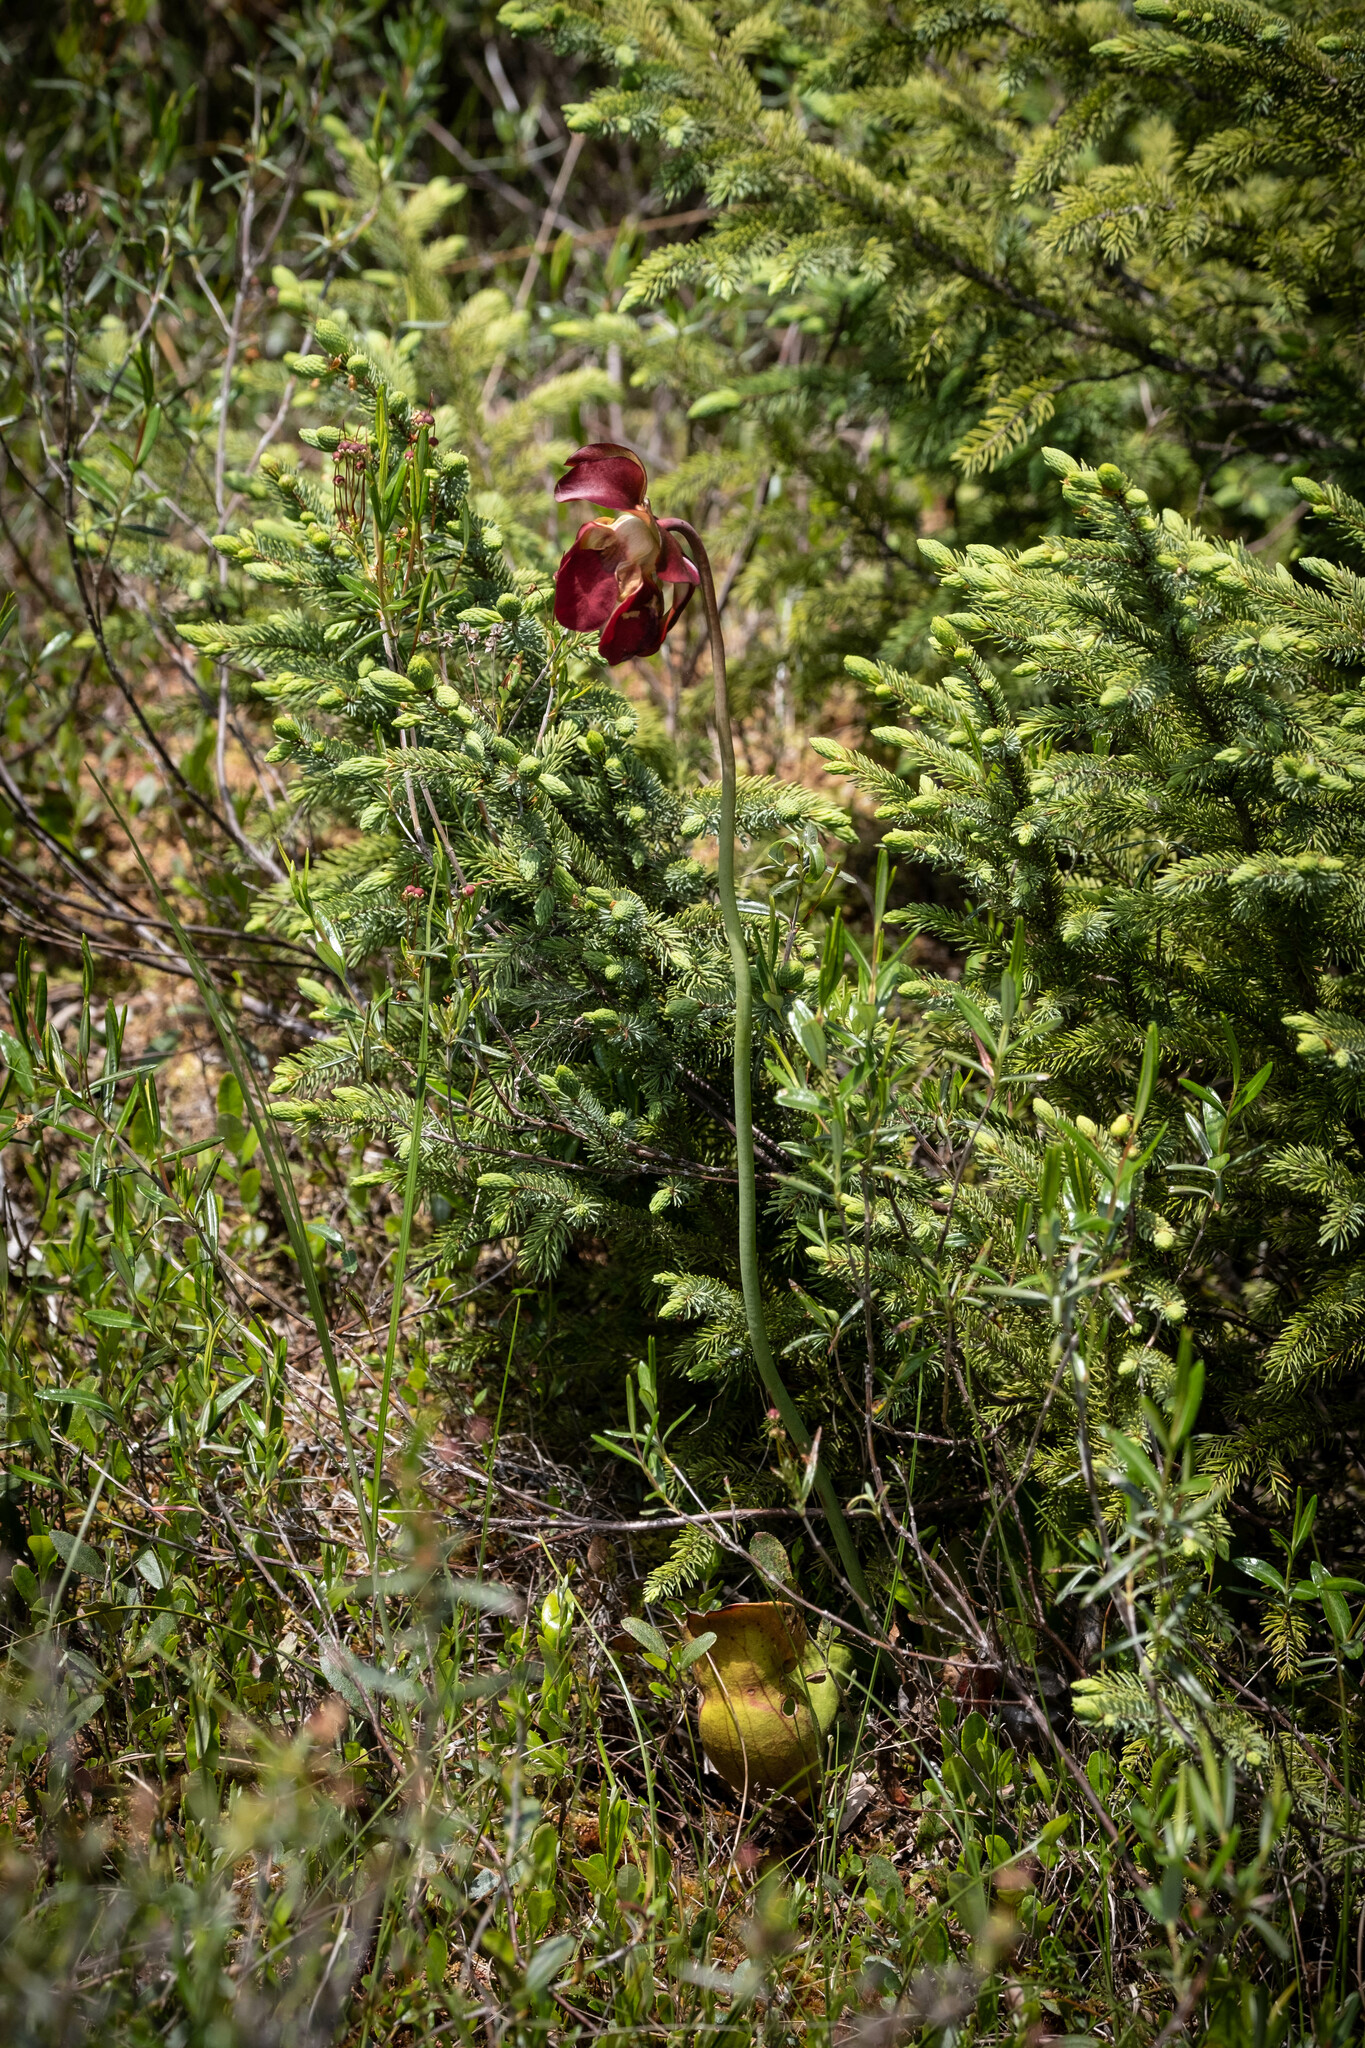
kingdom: Plantae
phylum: Tracheophyta
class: Magnoliopsida
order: Ericales
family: Sarraceniaceae
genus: Sarracenia
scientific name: Sarracenia purpurea
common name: Pitcherplant
